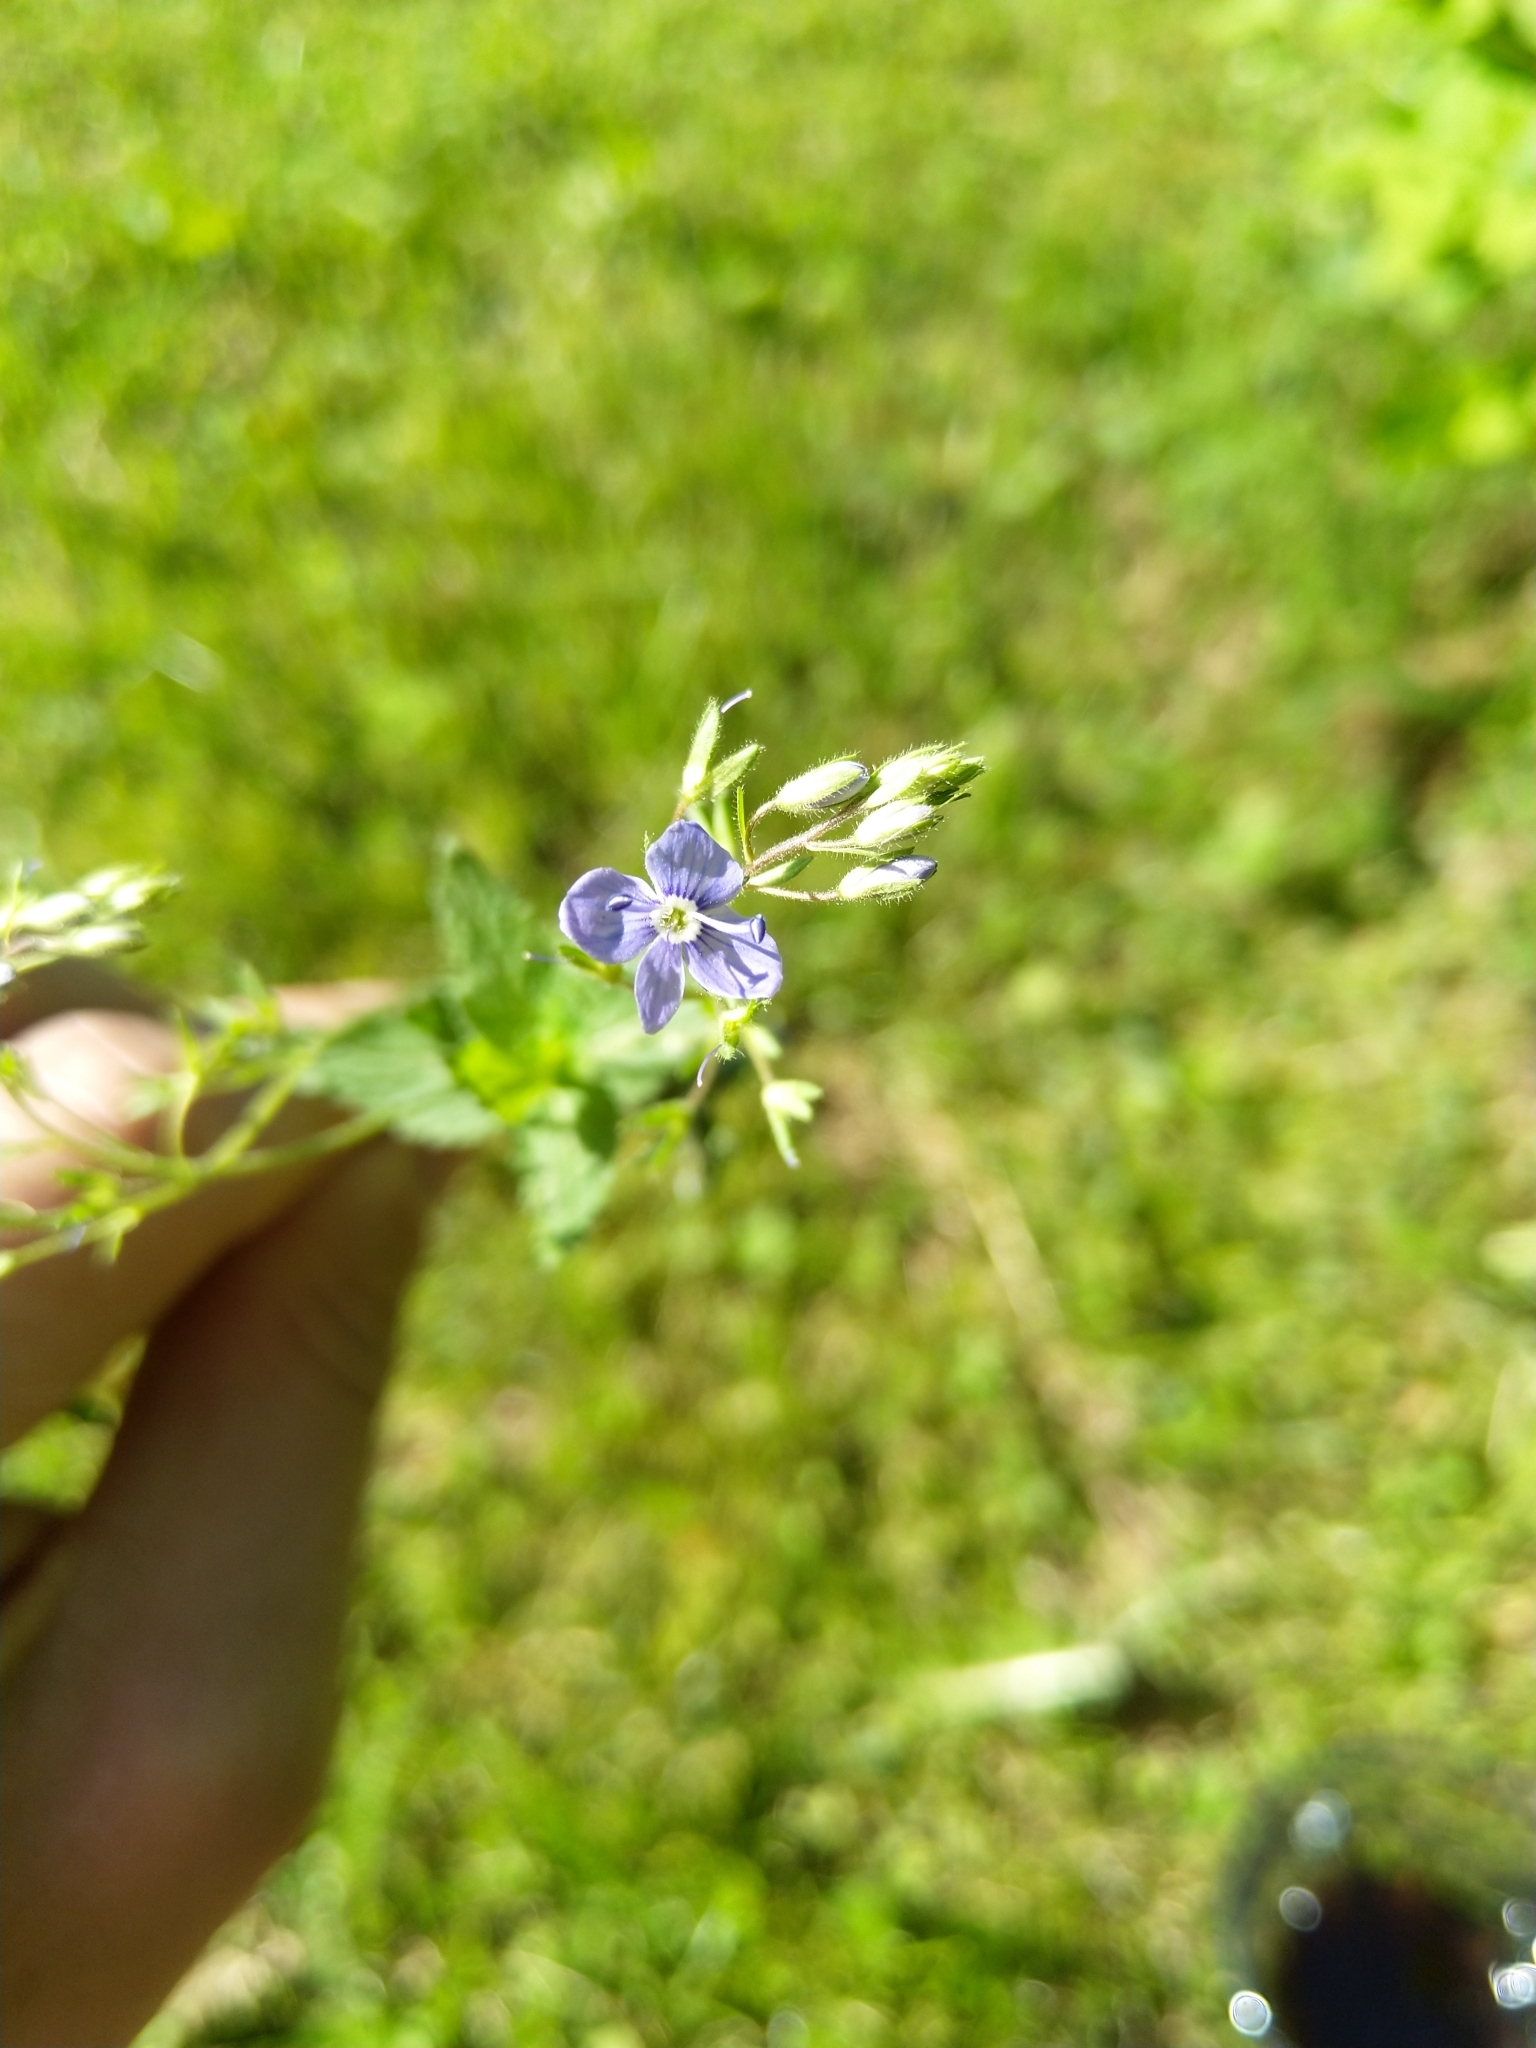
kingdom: Plantae
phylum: Tracheophyta
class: Magnoliopsida
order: Lamiales
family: Plantaginaceae
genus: Veronica
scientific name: Veronica chamaedrys
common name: Germander speedwell
